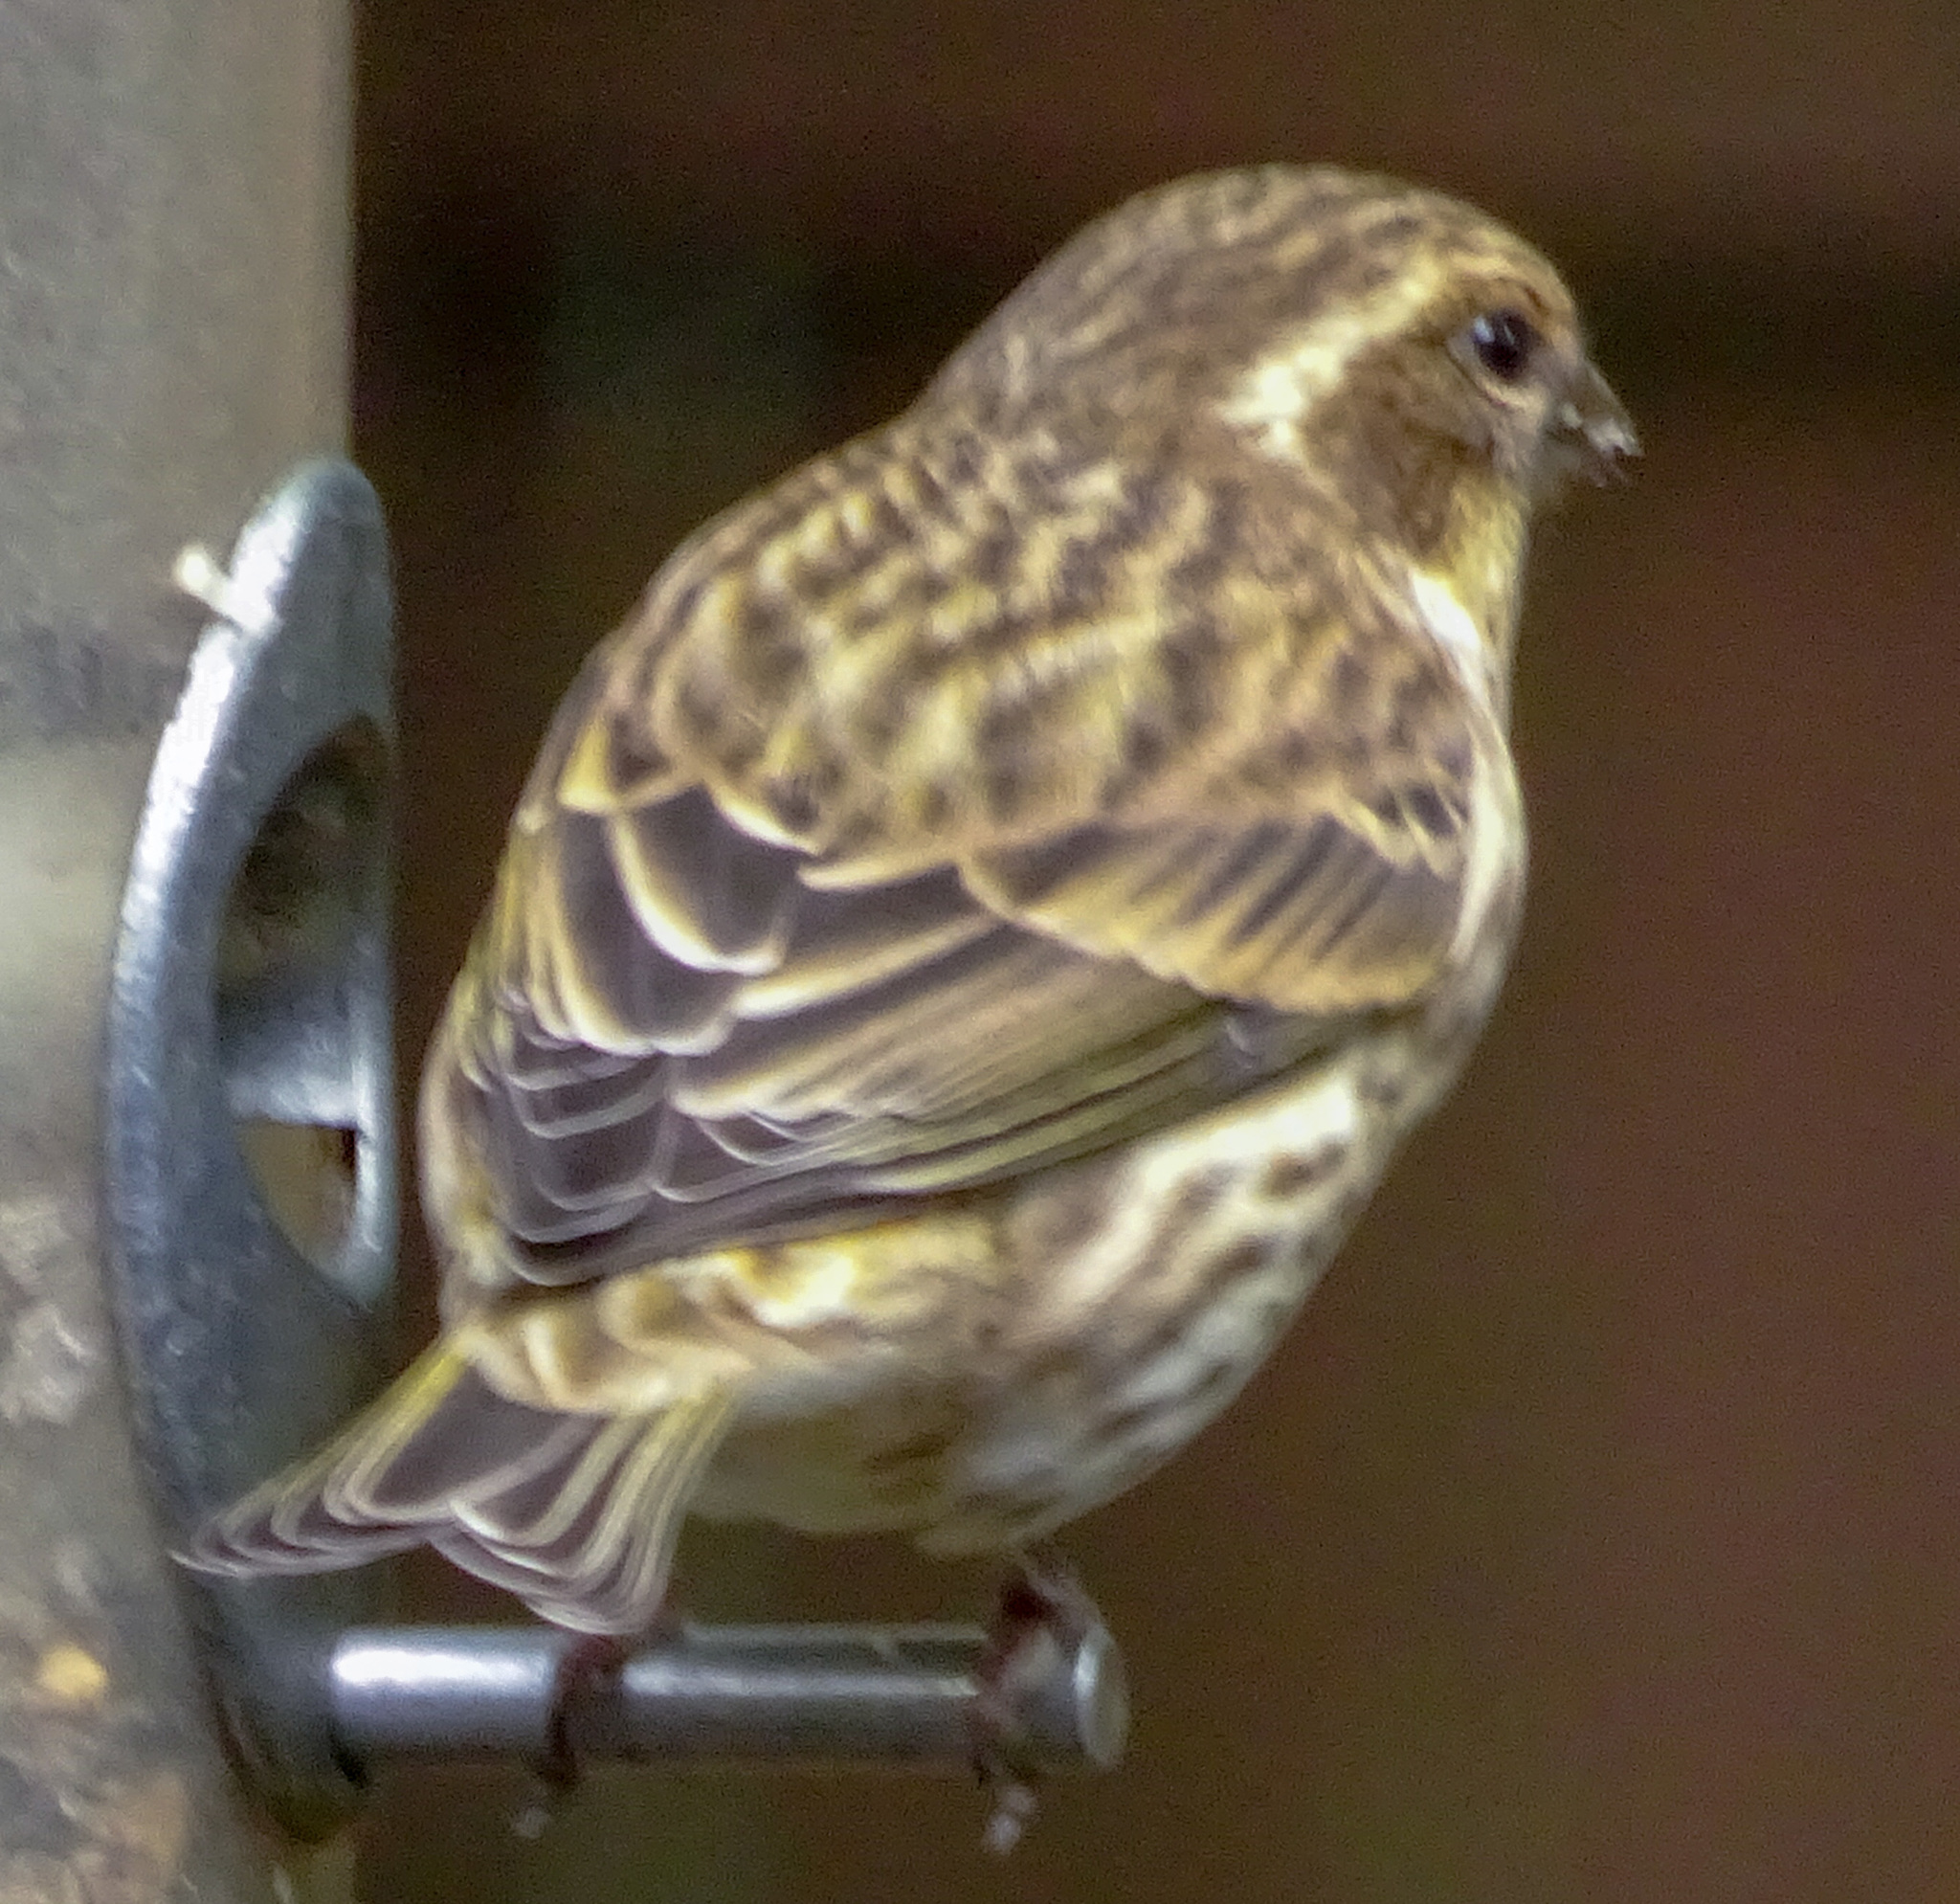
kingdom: Animalia
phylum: Chordata
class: Aves
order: Passeriformes
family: Fringillidae
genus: Haemorhous
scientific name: Haemorhous purpureus
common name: Purple finch
